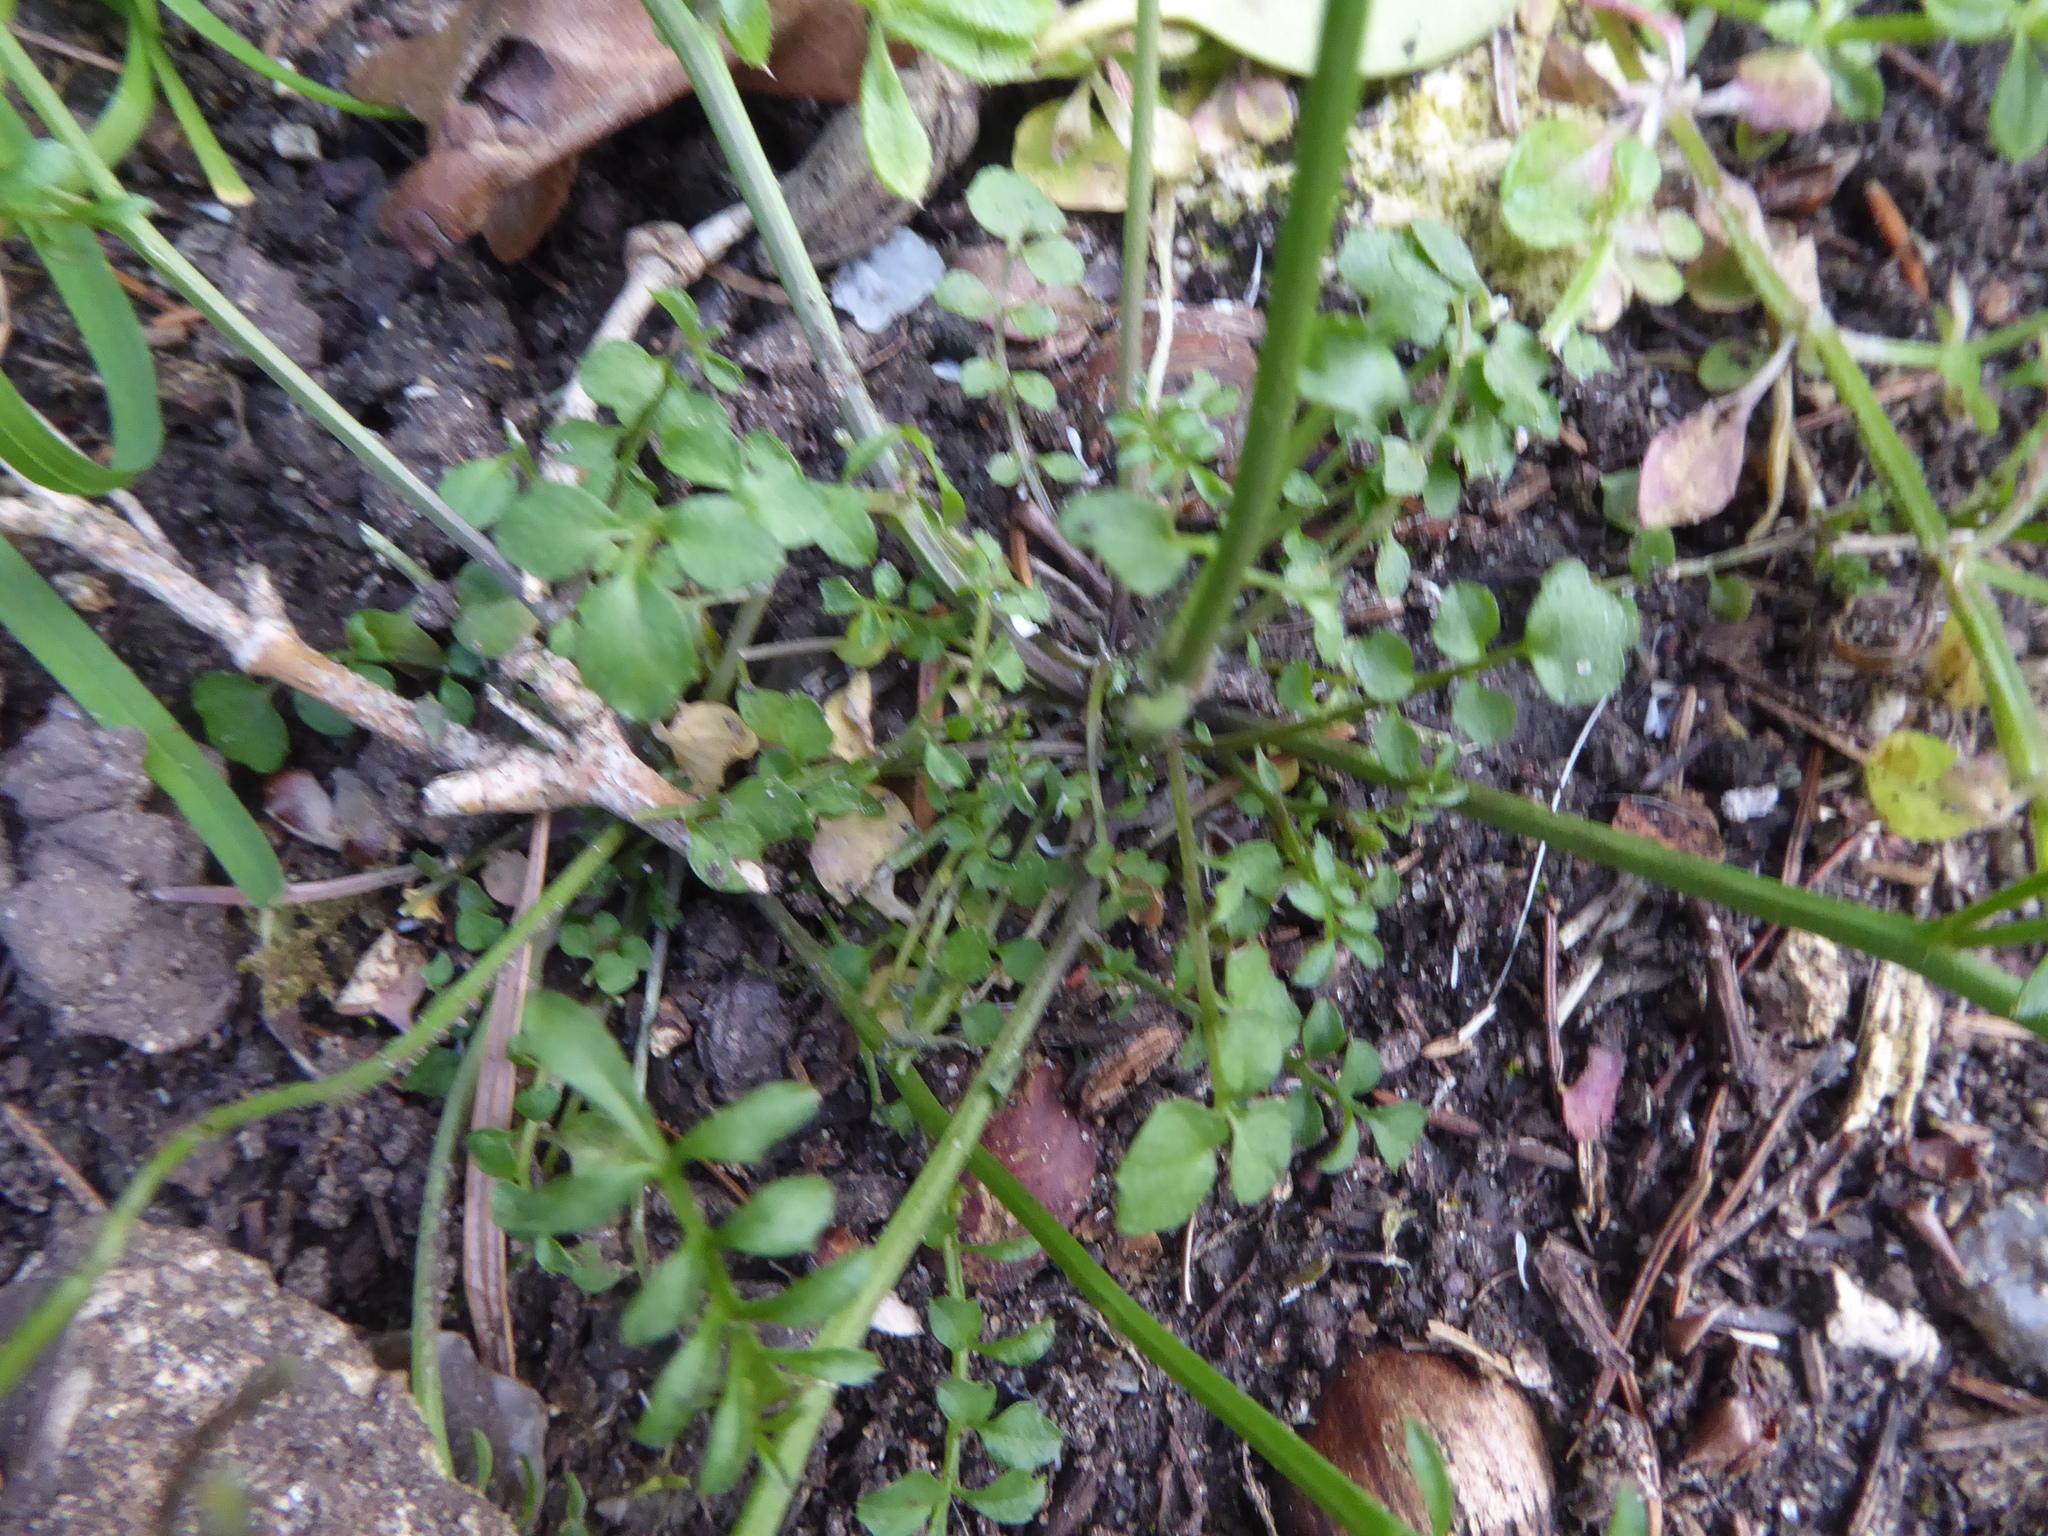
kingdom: Plantae
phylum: Tracheophyta
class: Magnoliopsida
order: Brassicales
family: Brassicaceae
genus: Cardamine
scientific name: Cardamine hirsuta
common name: Hairy bittercress
